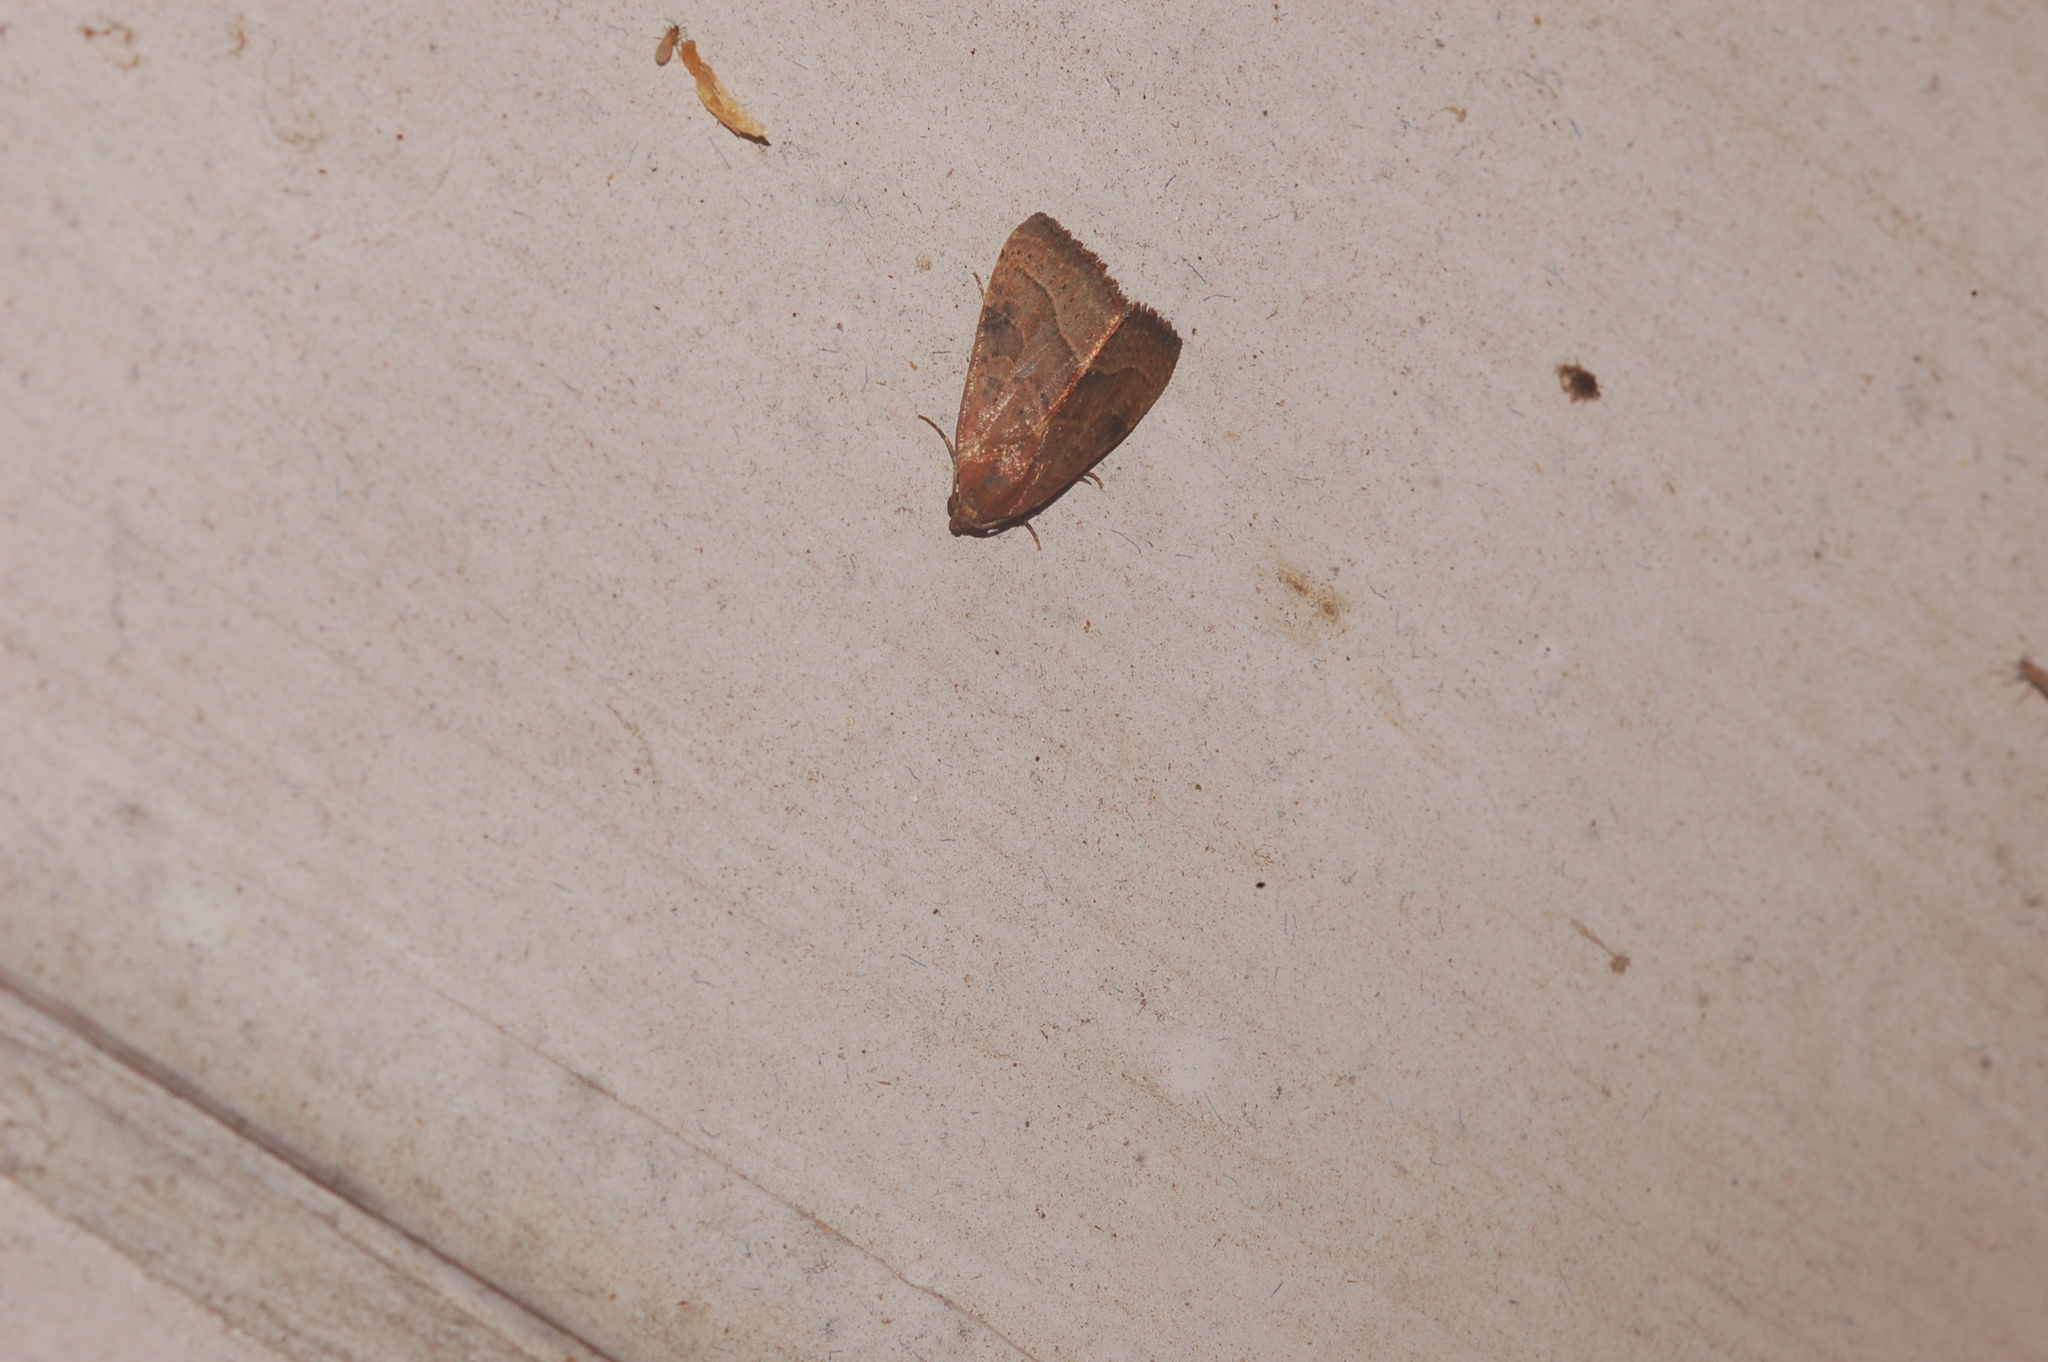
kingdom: Animalia
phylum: Arthropoda
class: Insecta
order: Lepidoptera
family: Noctuidae
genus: Galgula
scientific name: Galgula partita
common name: Wedgeling
